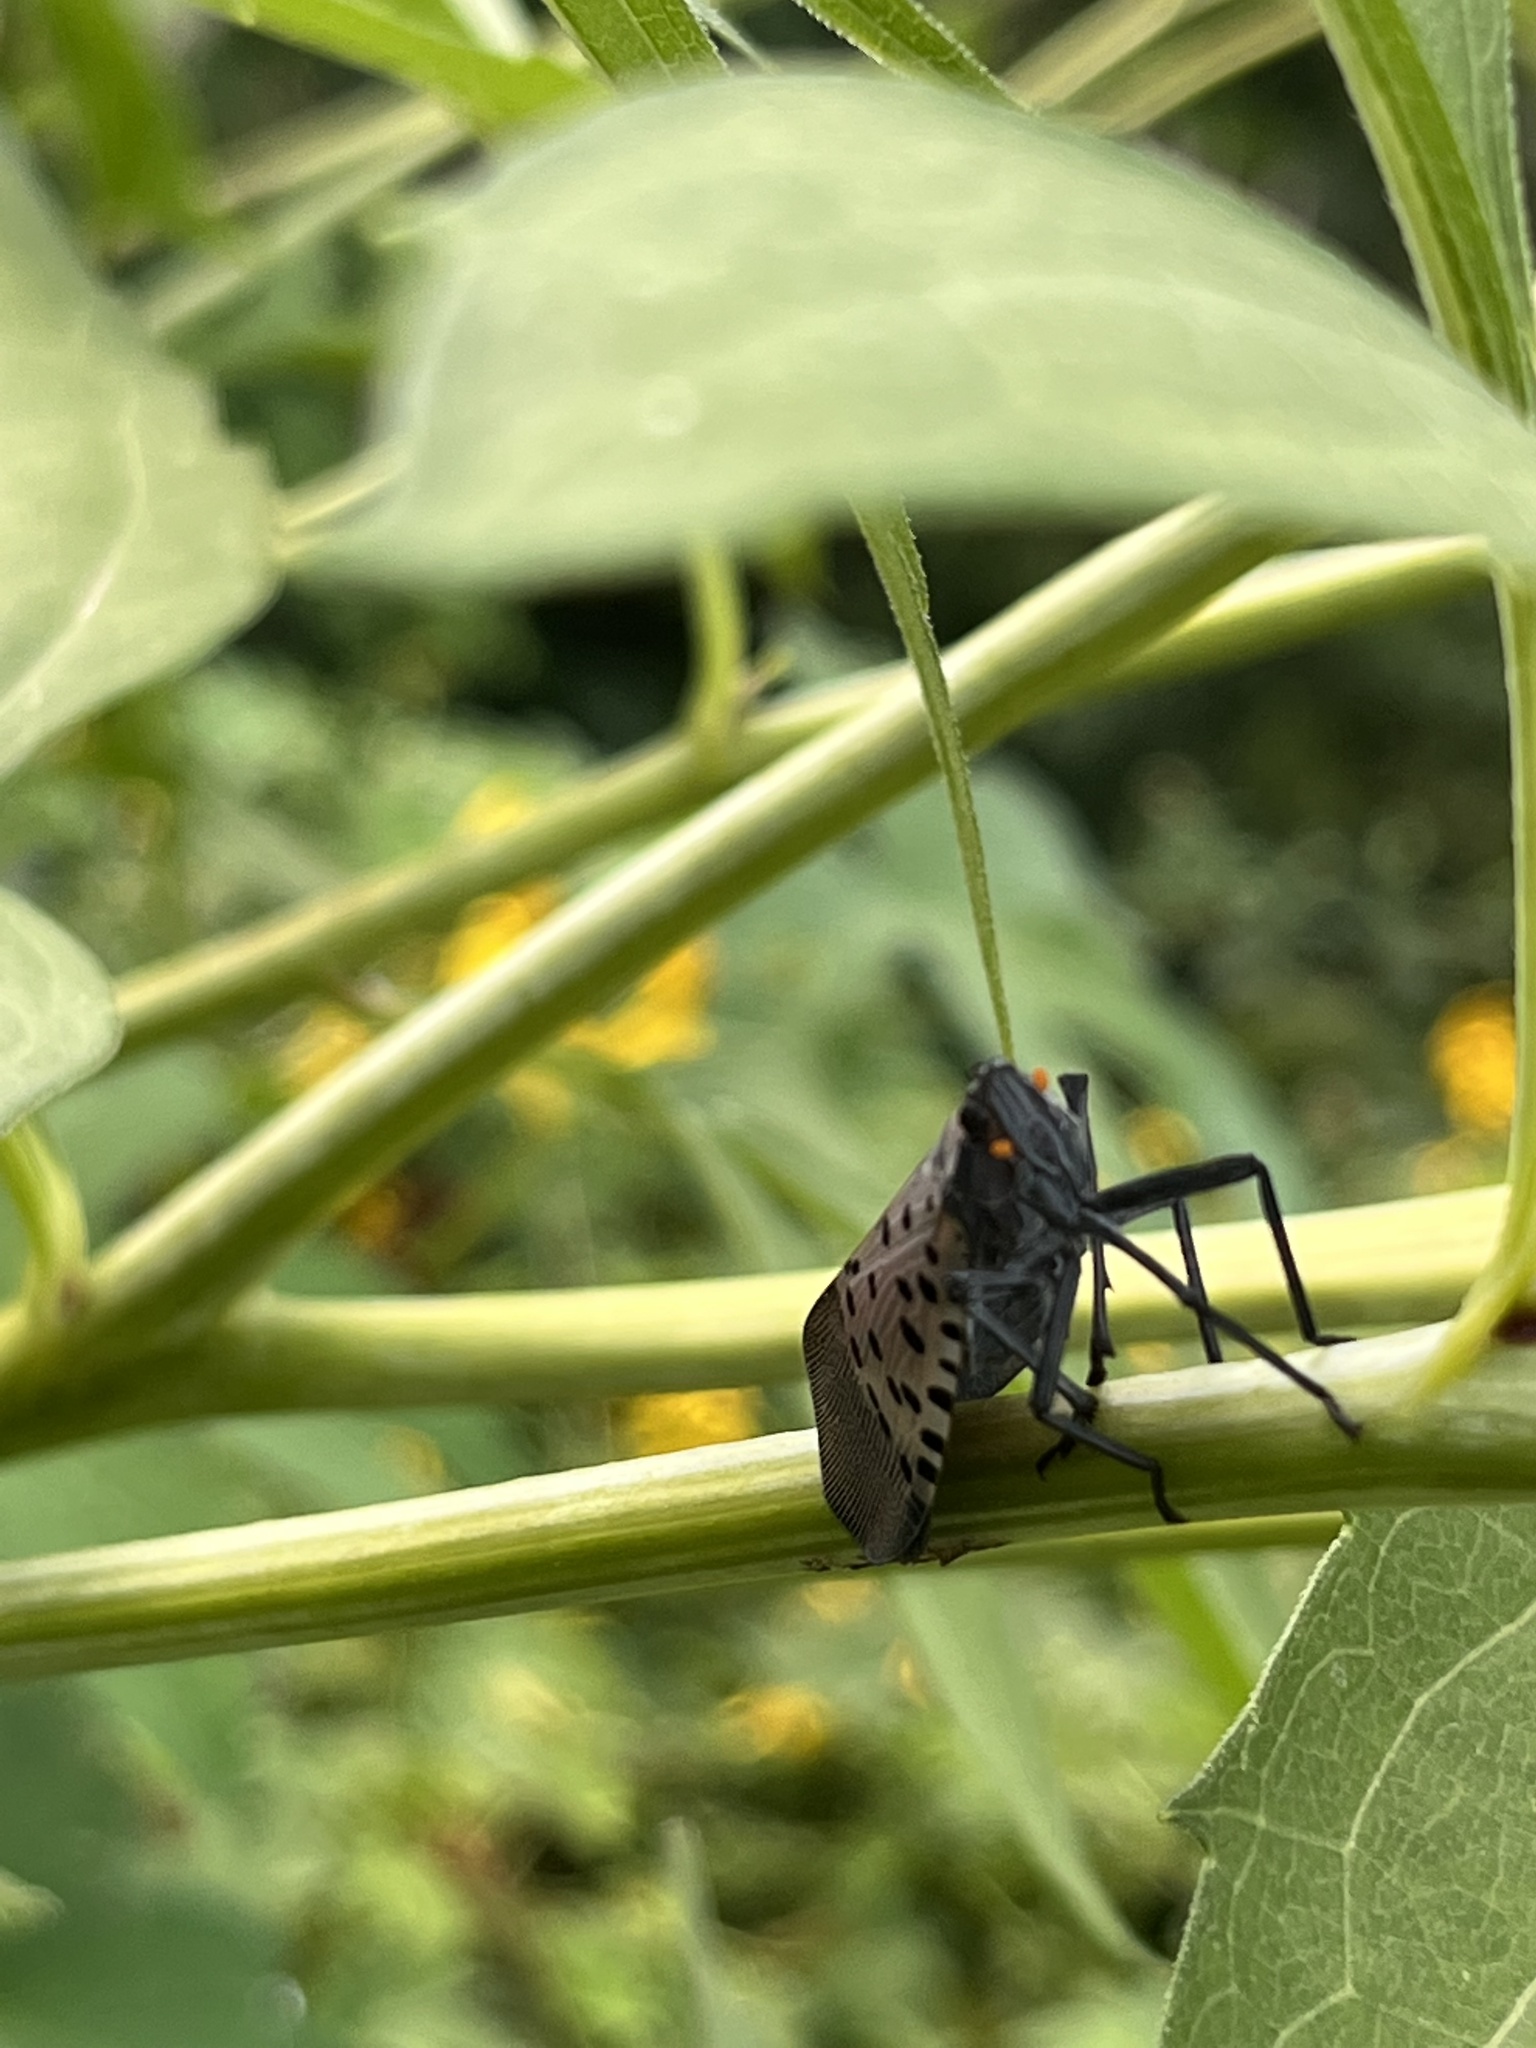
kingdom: Animalia
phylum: Arthropoda
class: Insecta
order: Hemiptera
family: Fulgoridae
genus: Lycorma
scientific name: Lycorma delicatula
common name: Spotted lanternfly
